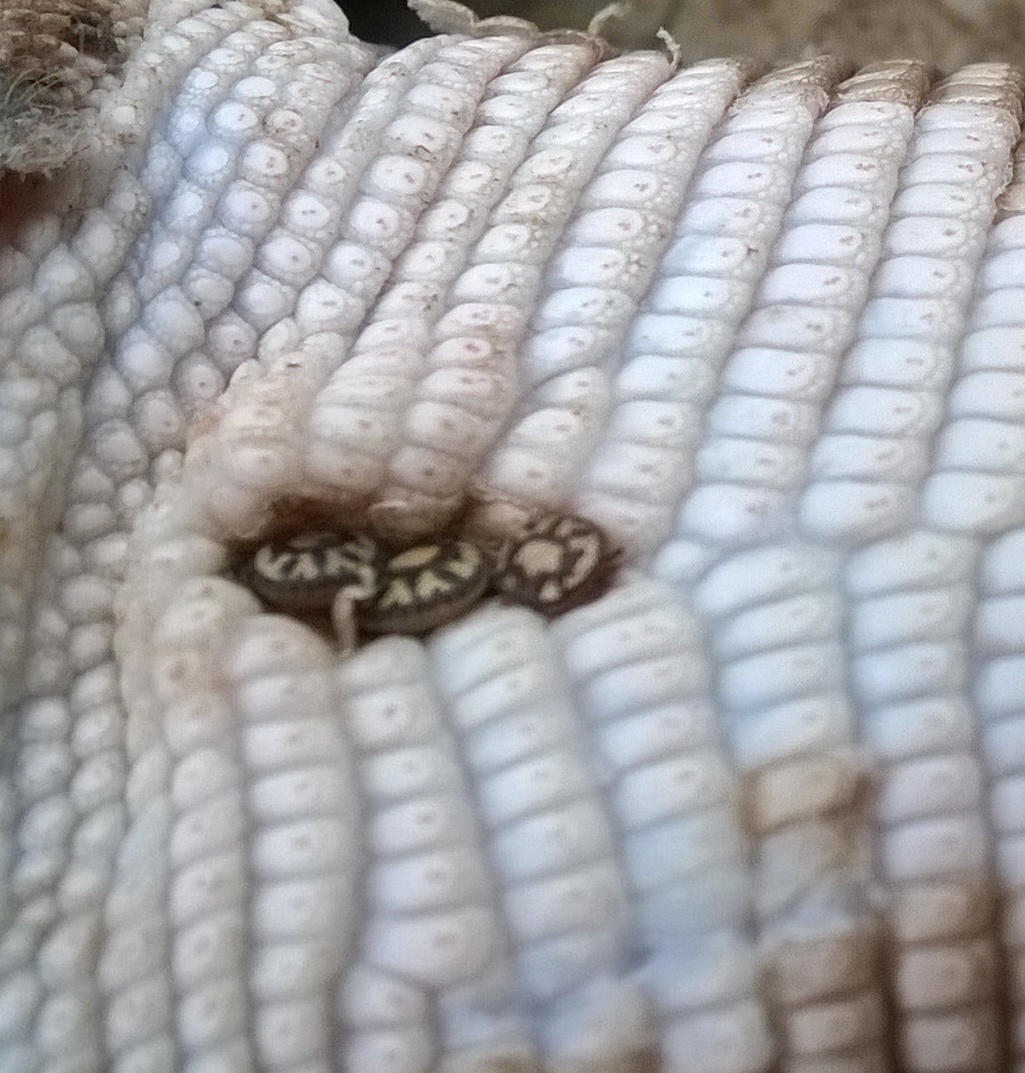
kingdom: Animalia
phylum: Arthropoda
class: Arachnida
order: Ixodida
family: Ixodidae
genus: Amblyomma
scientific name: Amblyomma gervaisi
